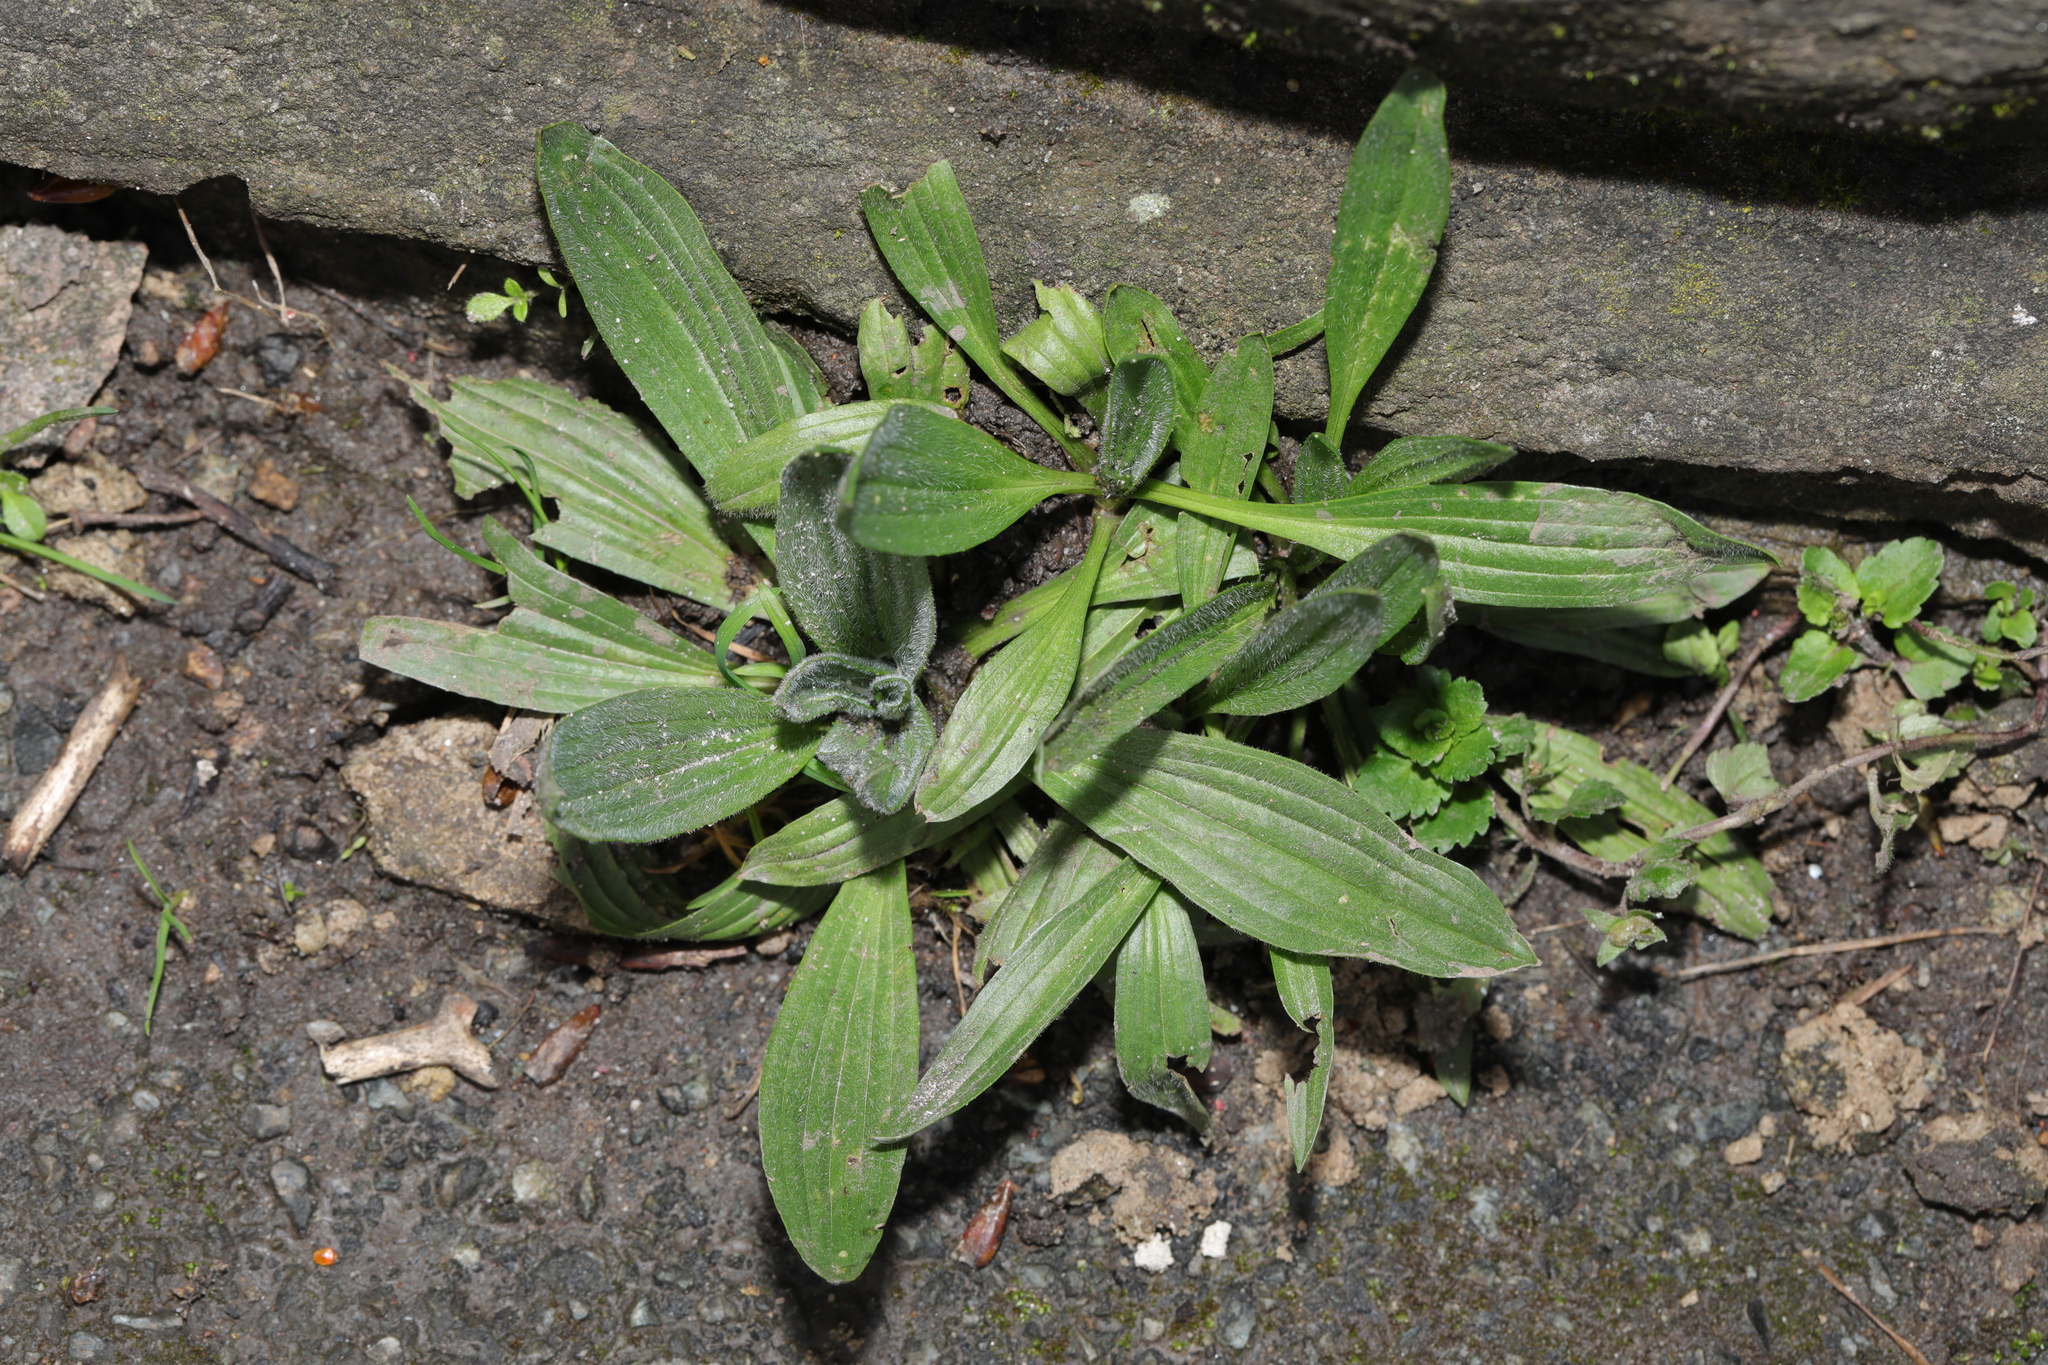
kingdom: Plantae
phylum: Tracheophyta
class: Magnoliopsida
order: Lamiales
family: Plantaginaceae
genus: Plantago
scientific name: Plantago lanceolata
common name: Ribwort plantain
